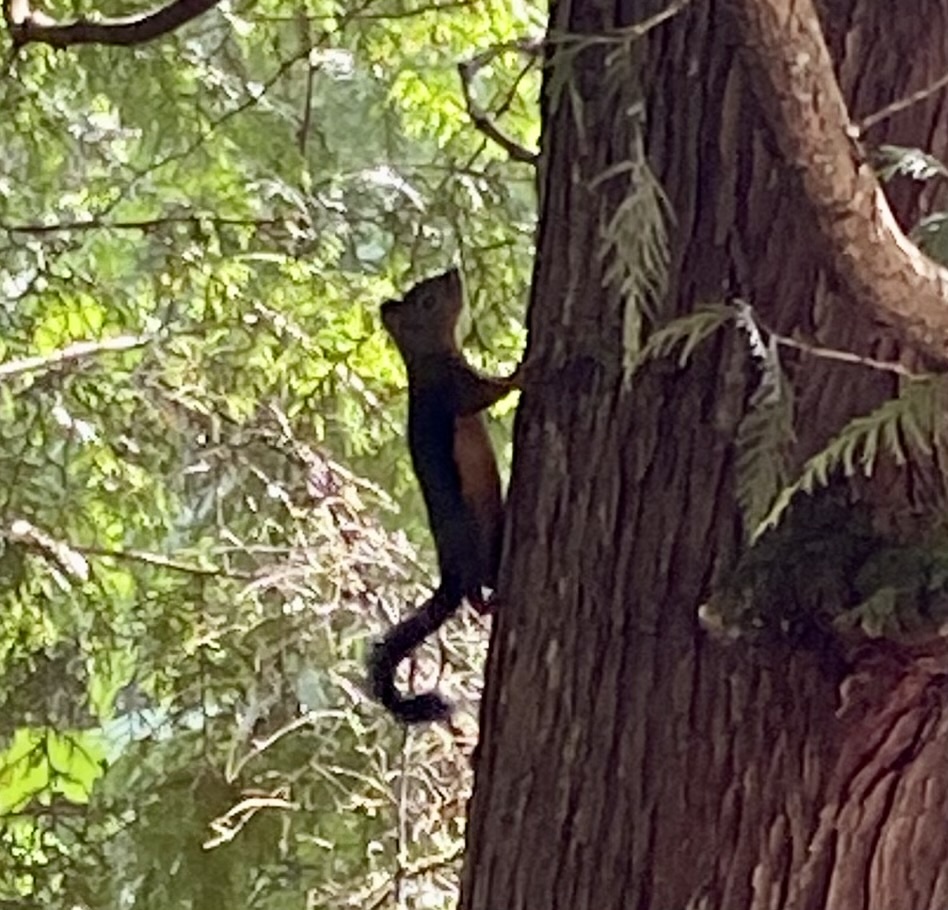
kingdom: Animalia
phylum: Chordata
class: Mammalia
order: Rodentia
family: Sciuridae
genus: Tamiasciurus
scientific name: Tamiasciurus douglasii
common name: Douglas's squirrel
